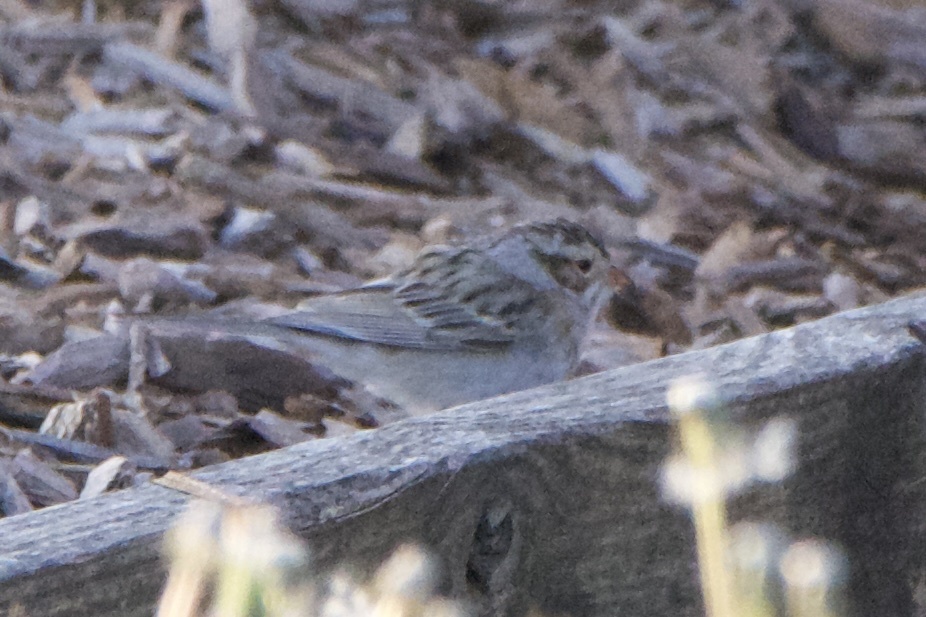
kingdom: Animalia
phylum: Chordata
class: Aves
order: Passeriformes
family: Passerellidae
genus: Spizella
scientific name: Spizella pallida
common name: Clay-colored sparrow
